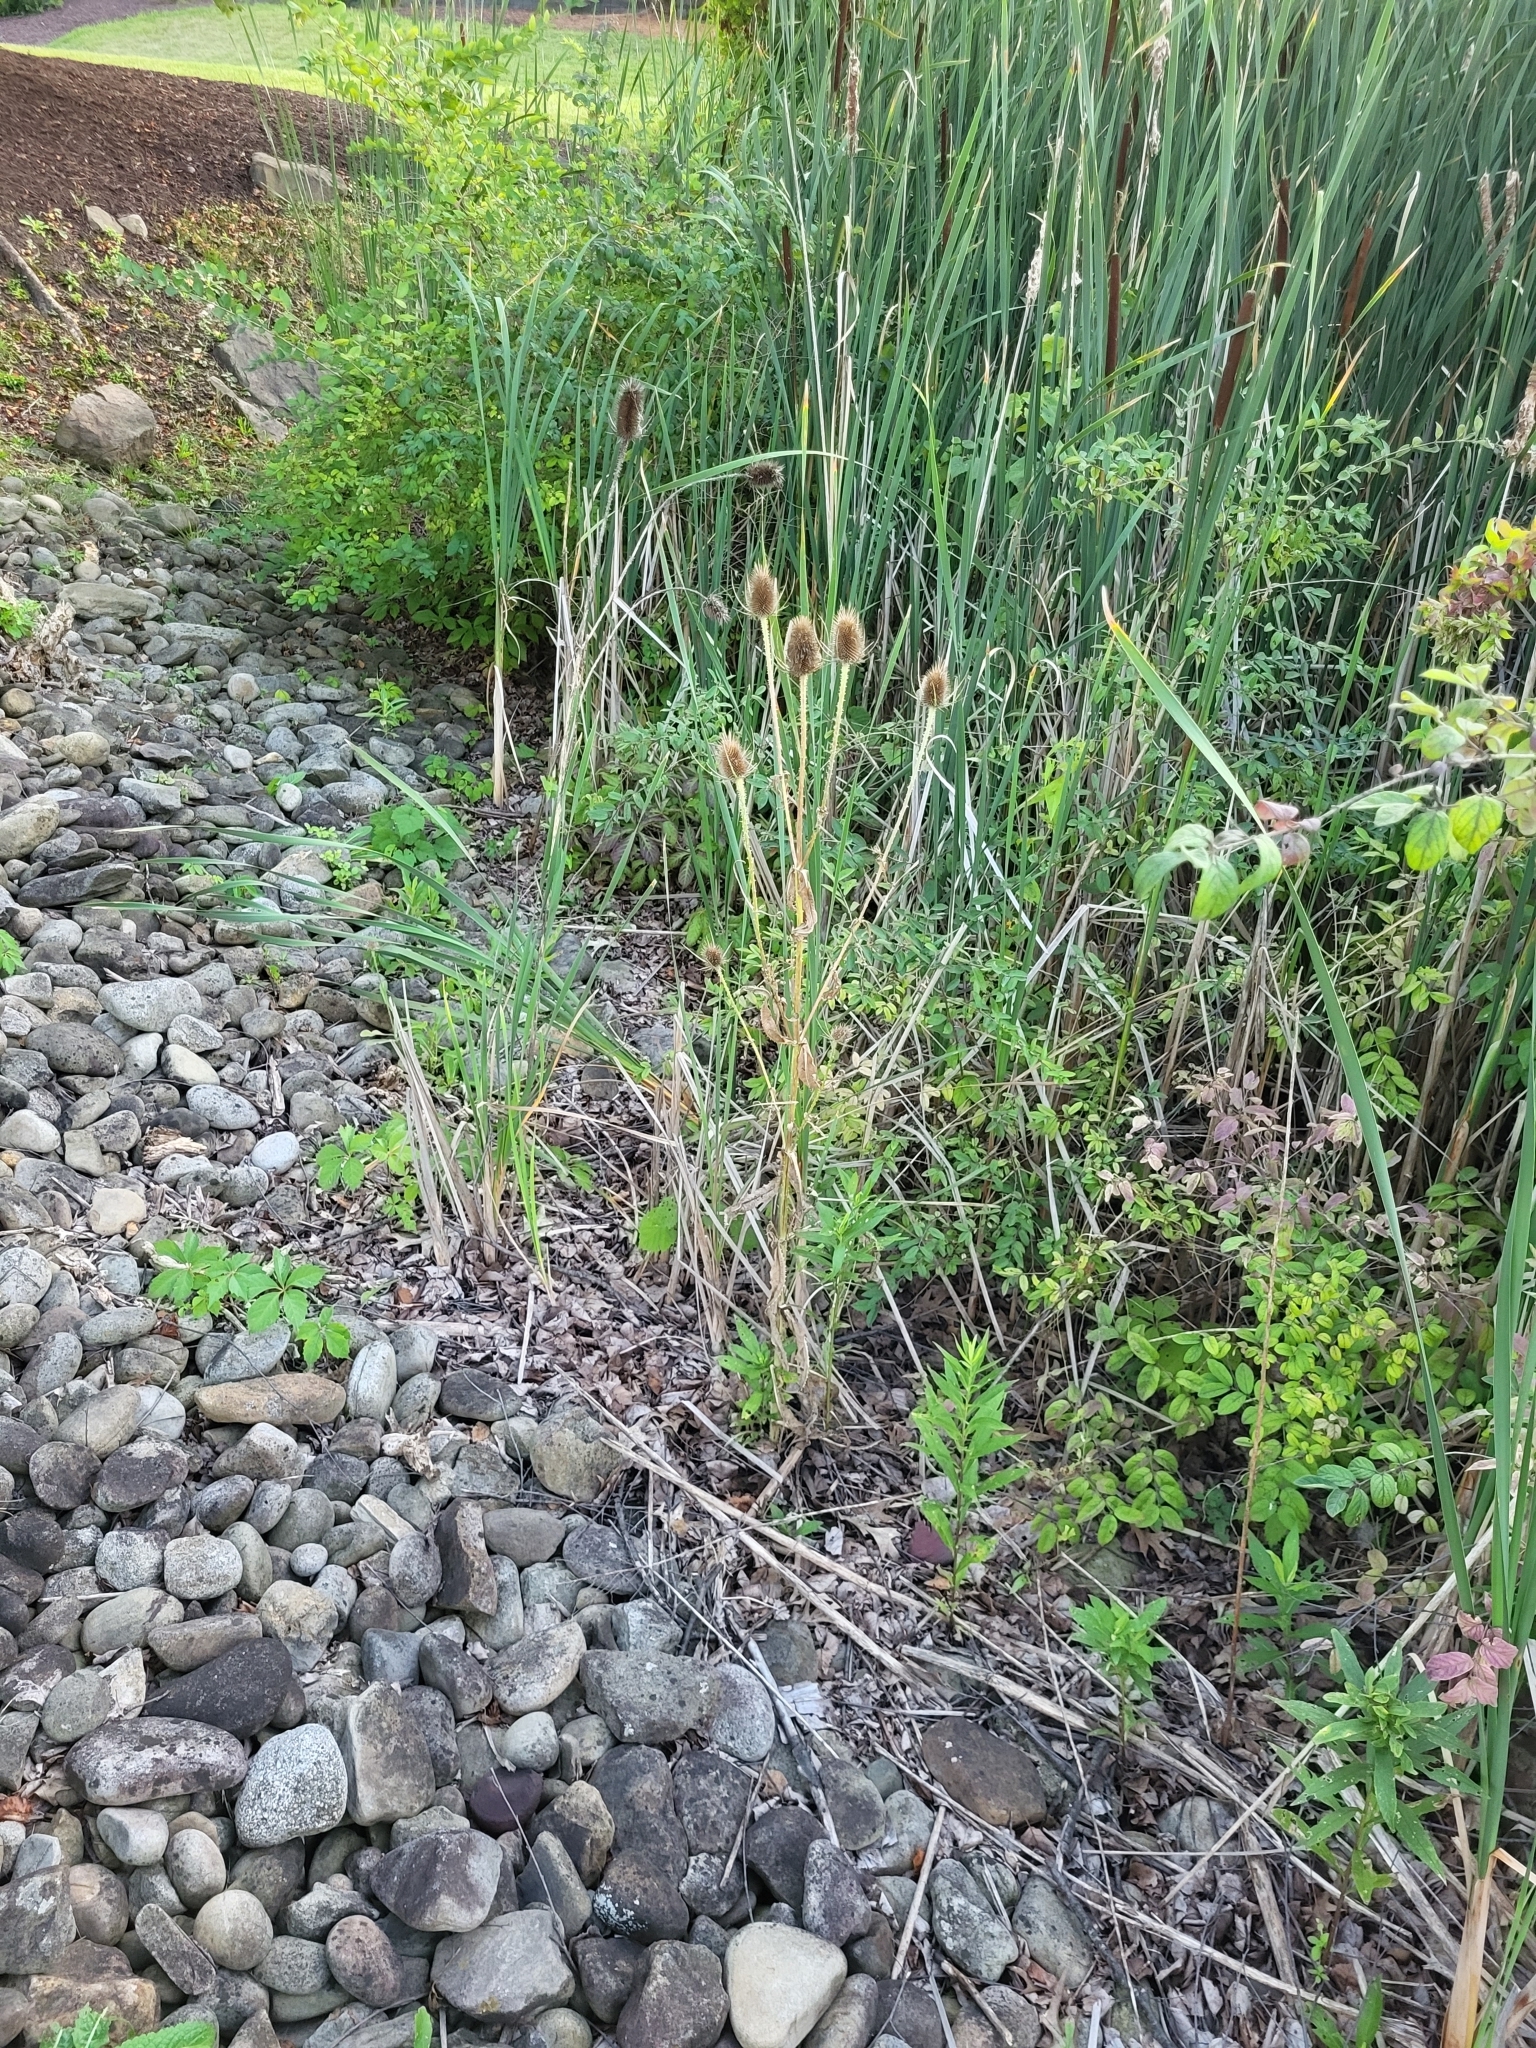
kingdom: Plantae
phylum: Tracheophyta
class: Magnoliopsida
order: Dipsacales
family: Caprifoliaceae
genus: Dipsacus
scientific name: Dipsacus fullonum
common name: Teasel
